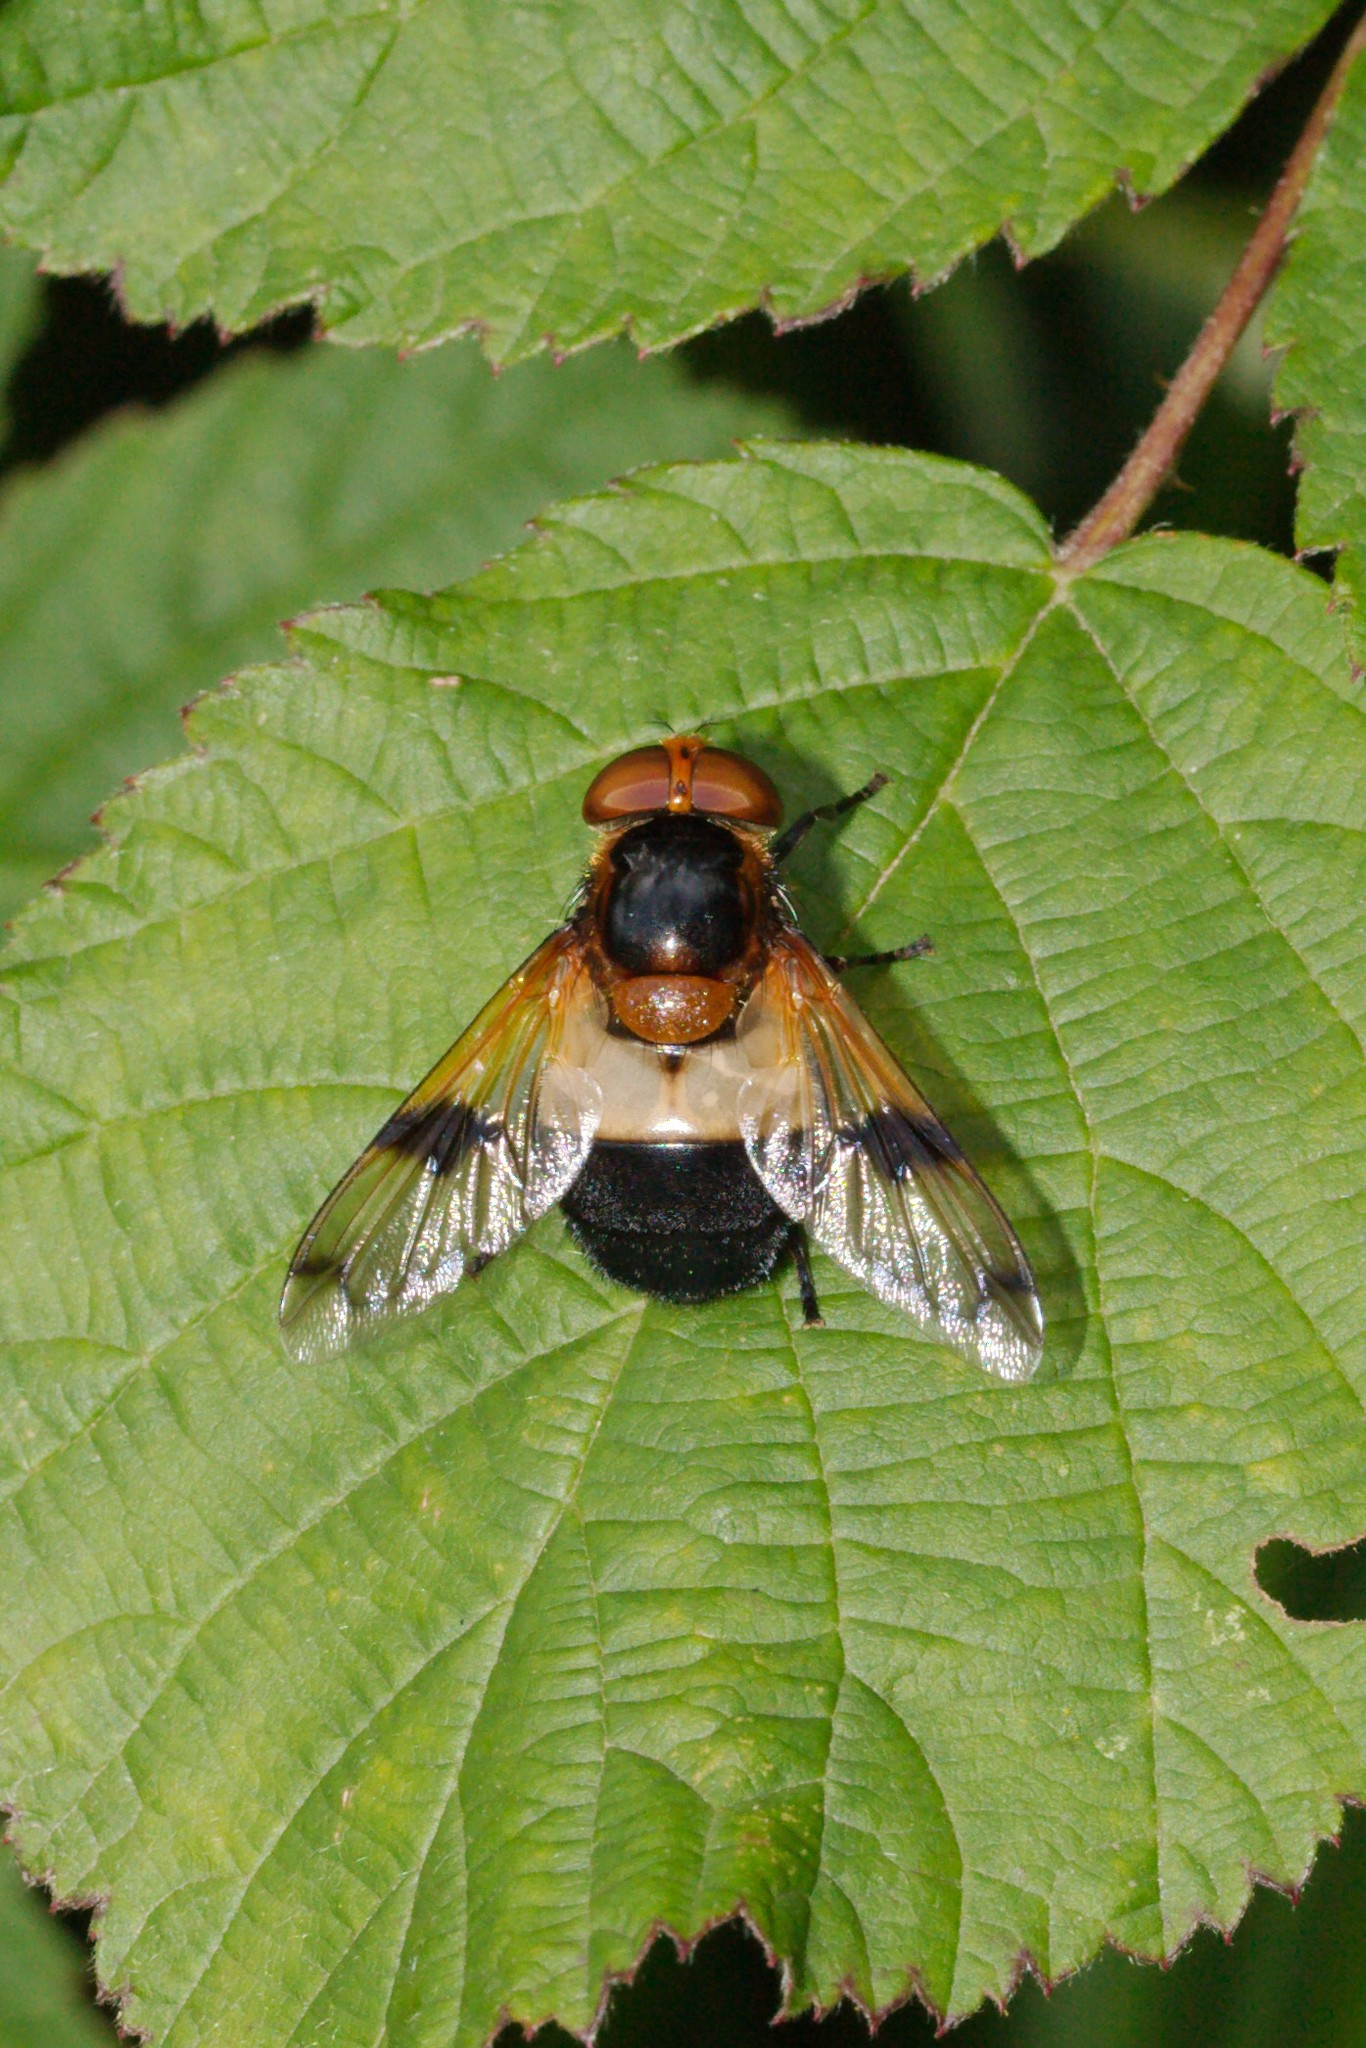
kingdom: Animalia
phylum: Arthropoda
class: Insecta
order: Diptera
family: Syrphidae
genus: Volucella
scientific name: Volucella pellucens
